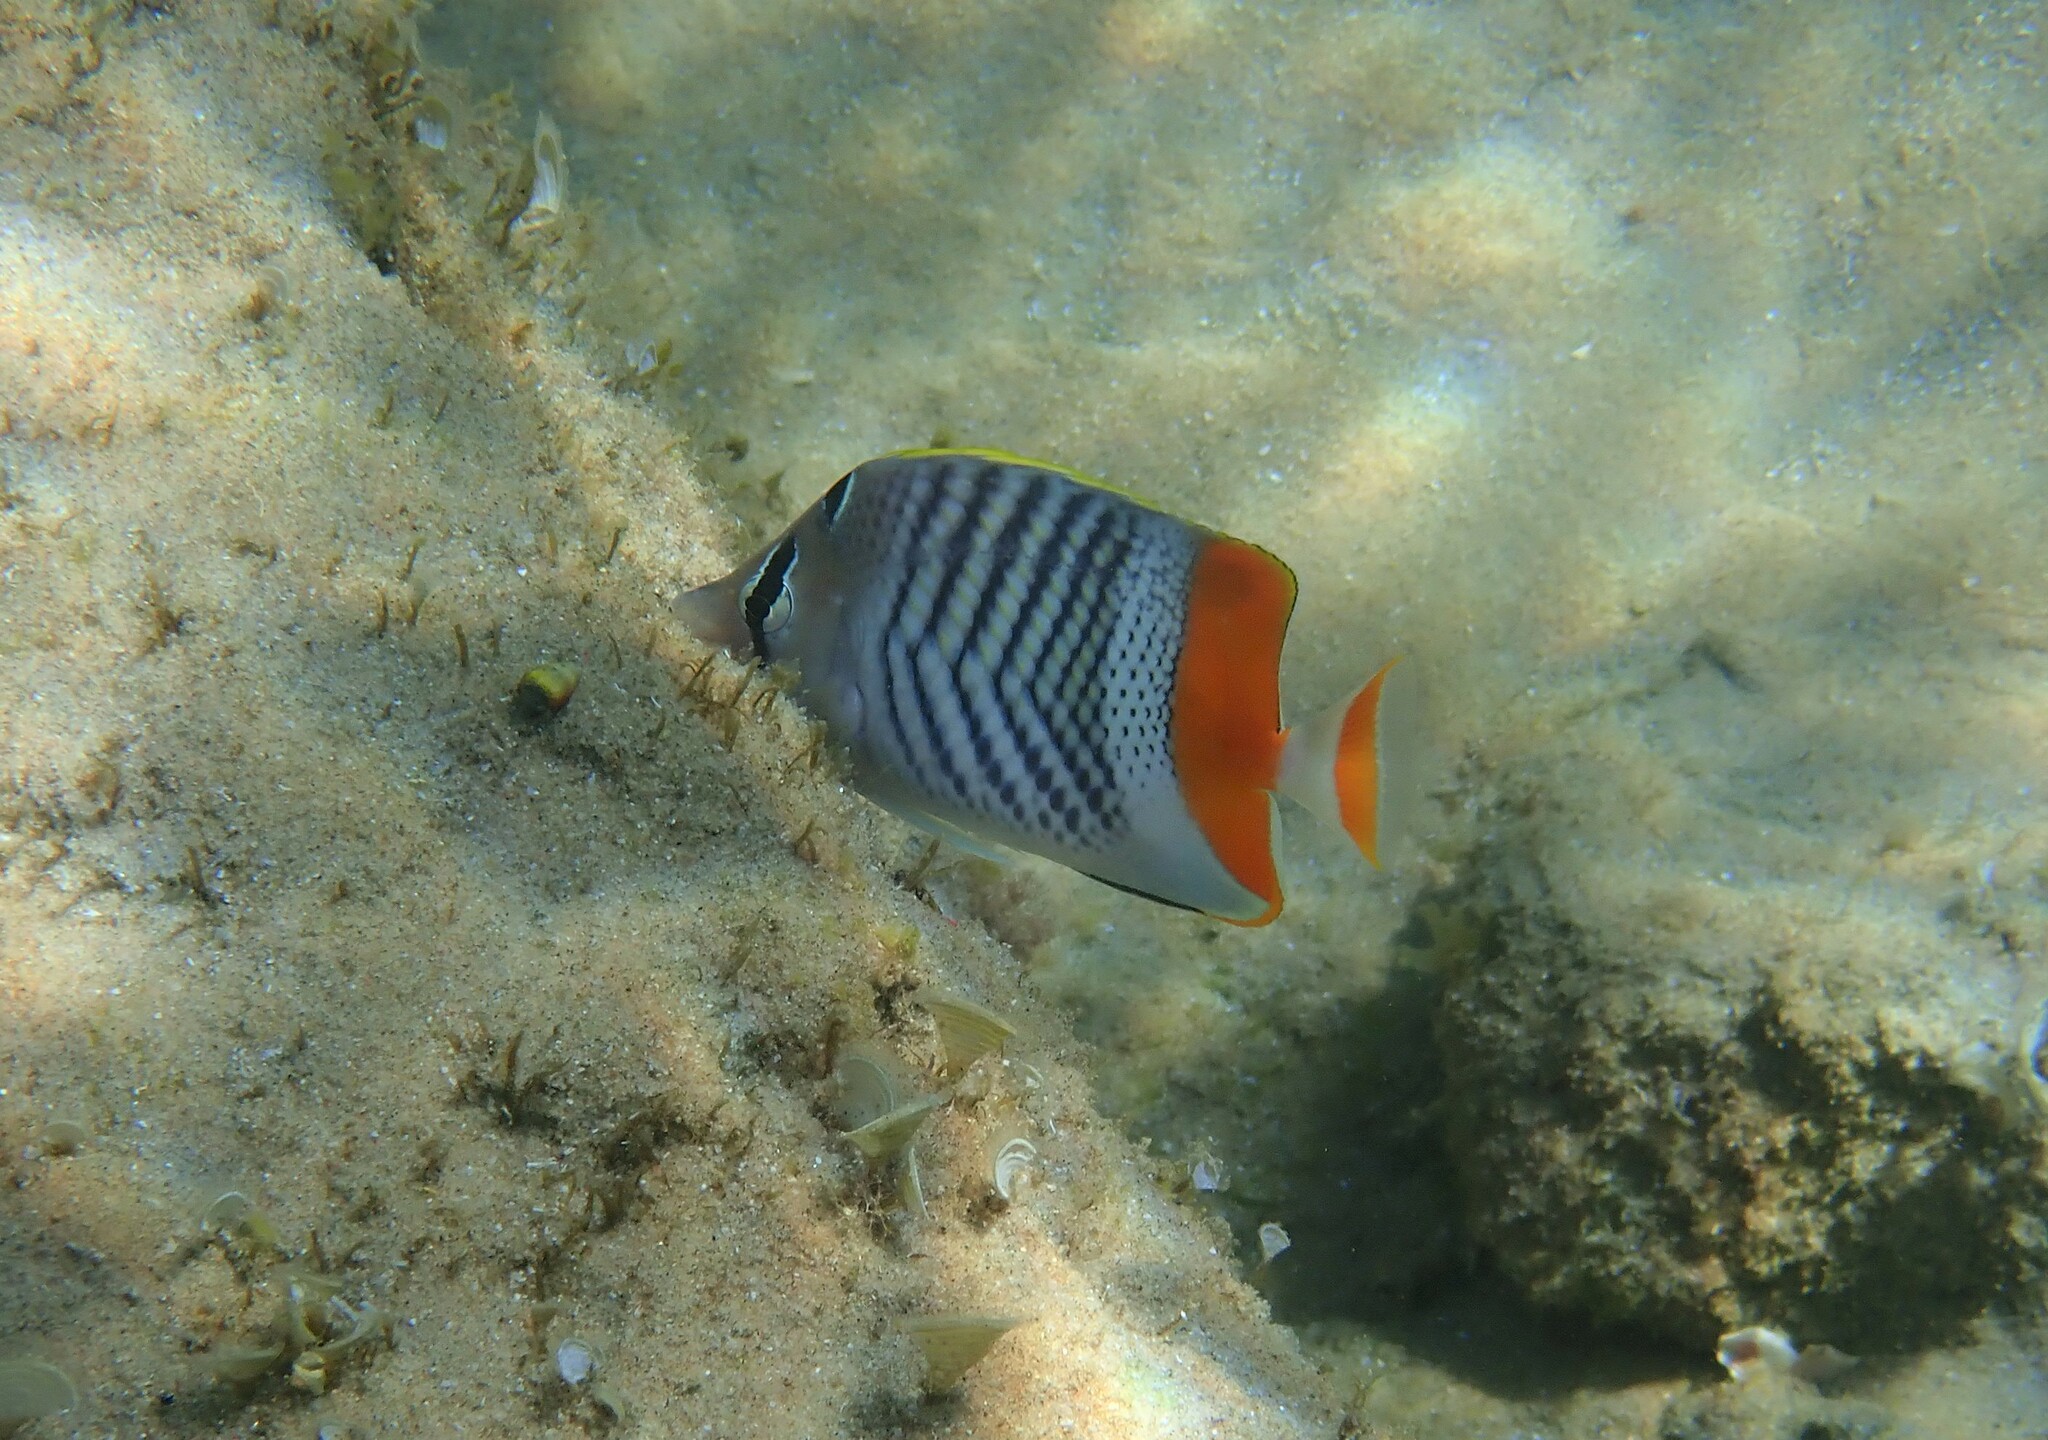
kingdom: Animalia
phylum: Chordata
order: Perciformes
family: Chaetodontidae
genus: Chaetodon
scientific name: Chaetodon madagaskariensis
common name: Madagascar butterflyfish
